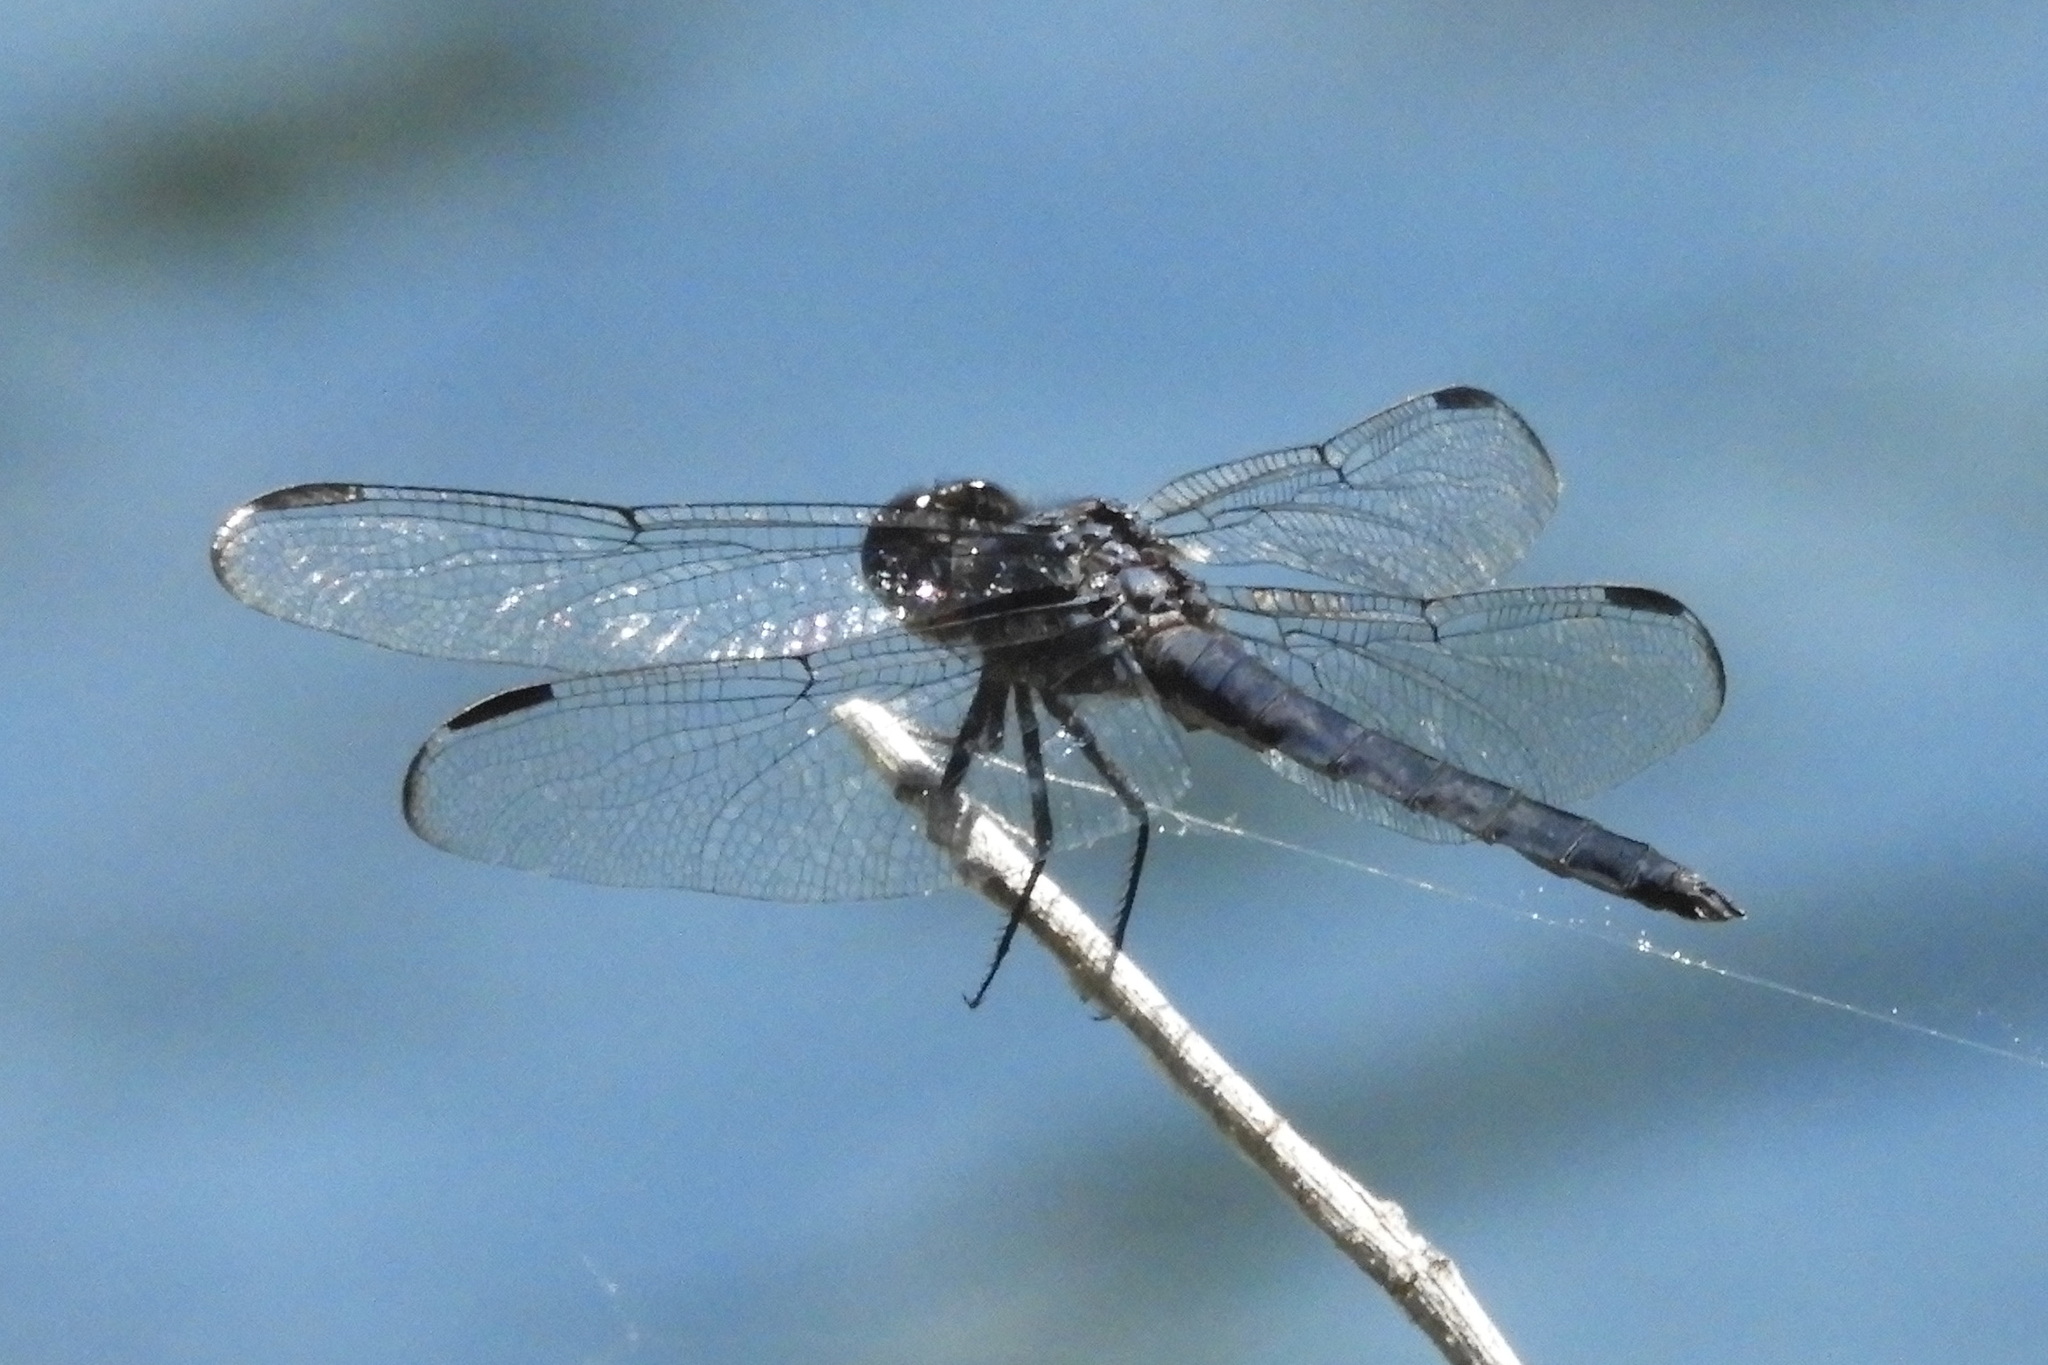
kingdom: Animalia
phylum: Arthropoda
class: Insecta
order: Odonata
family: Libellulidae
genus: Libellula
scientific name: Libellula incesta
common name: Slaty skimmer
